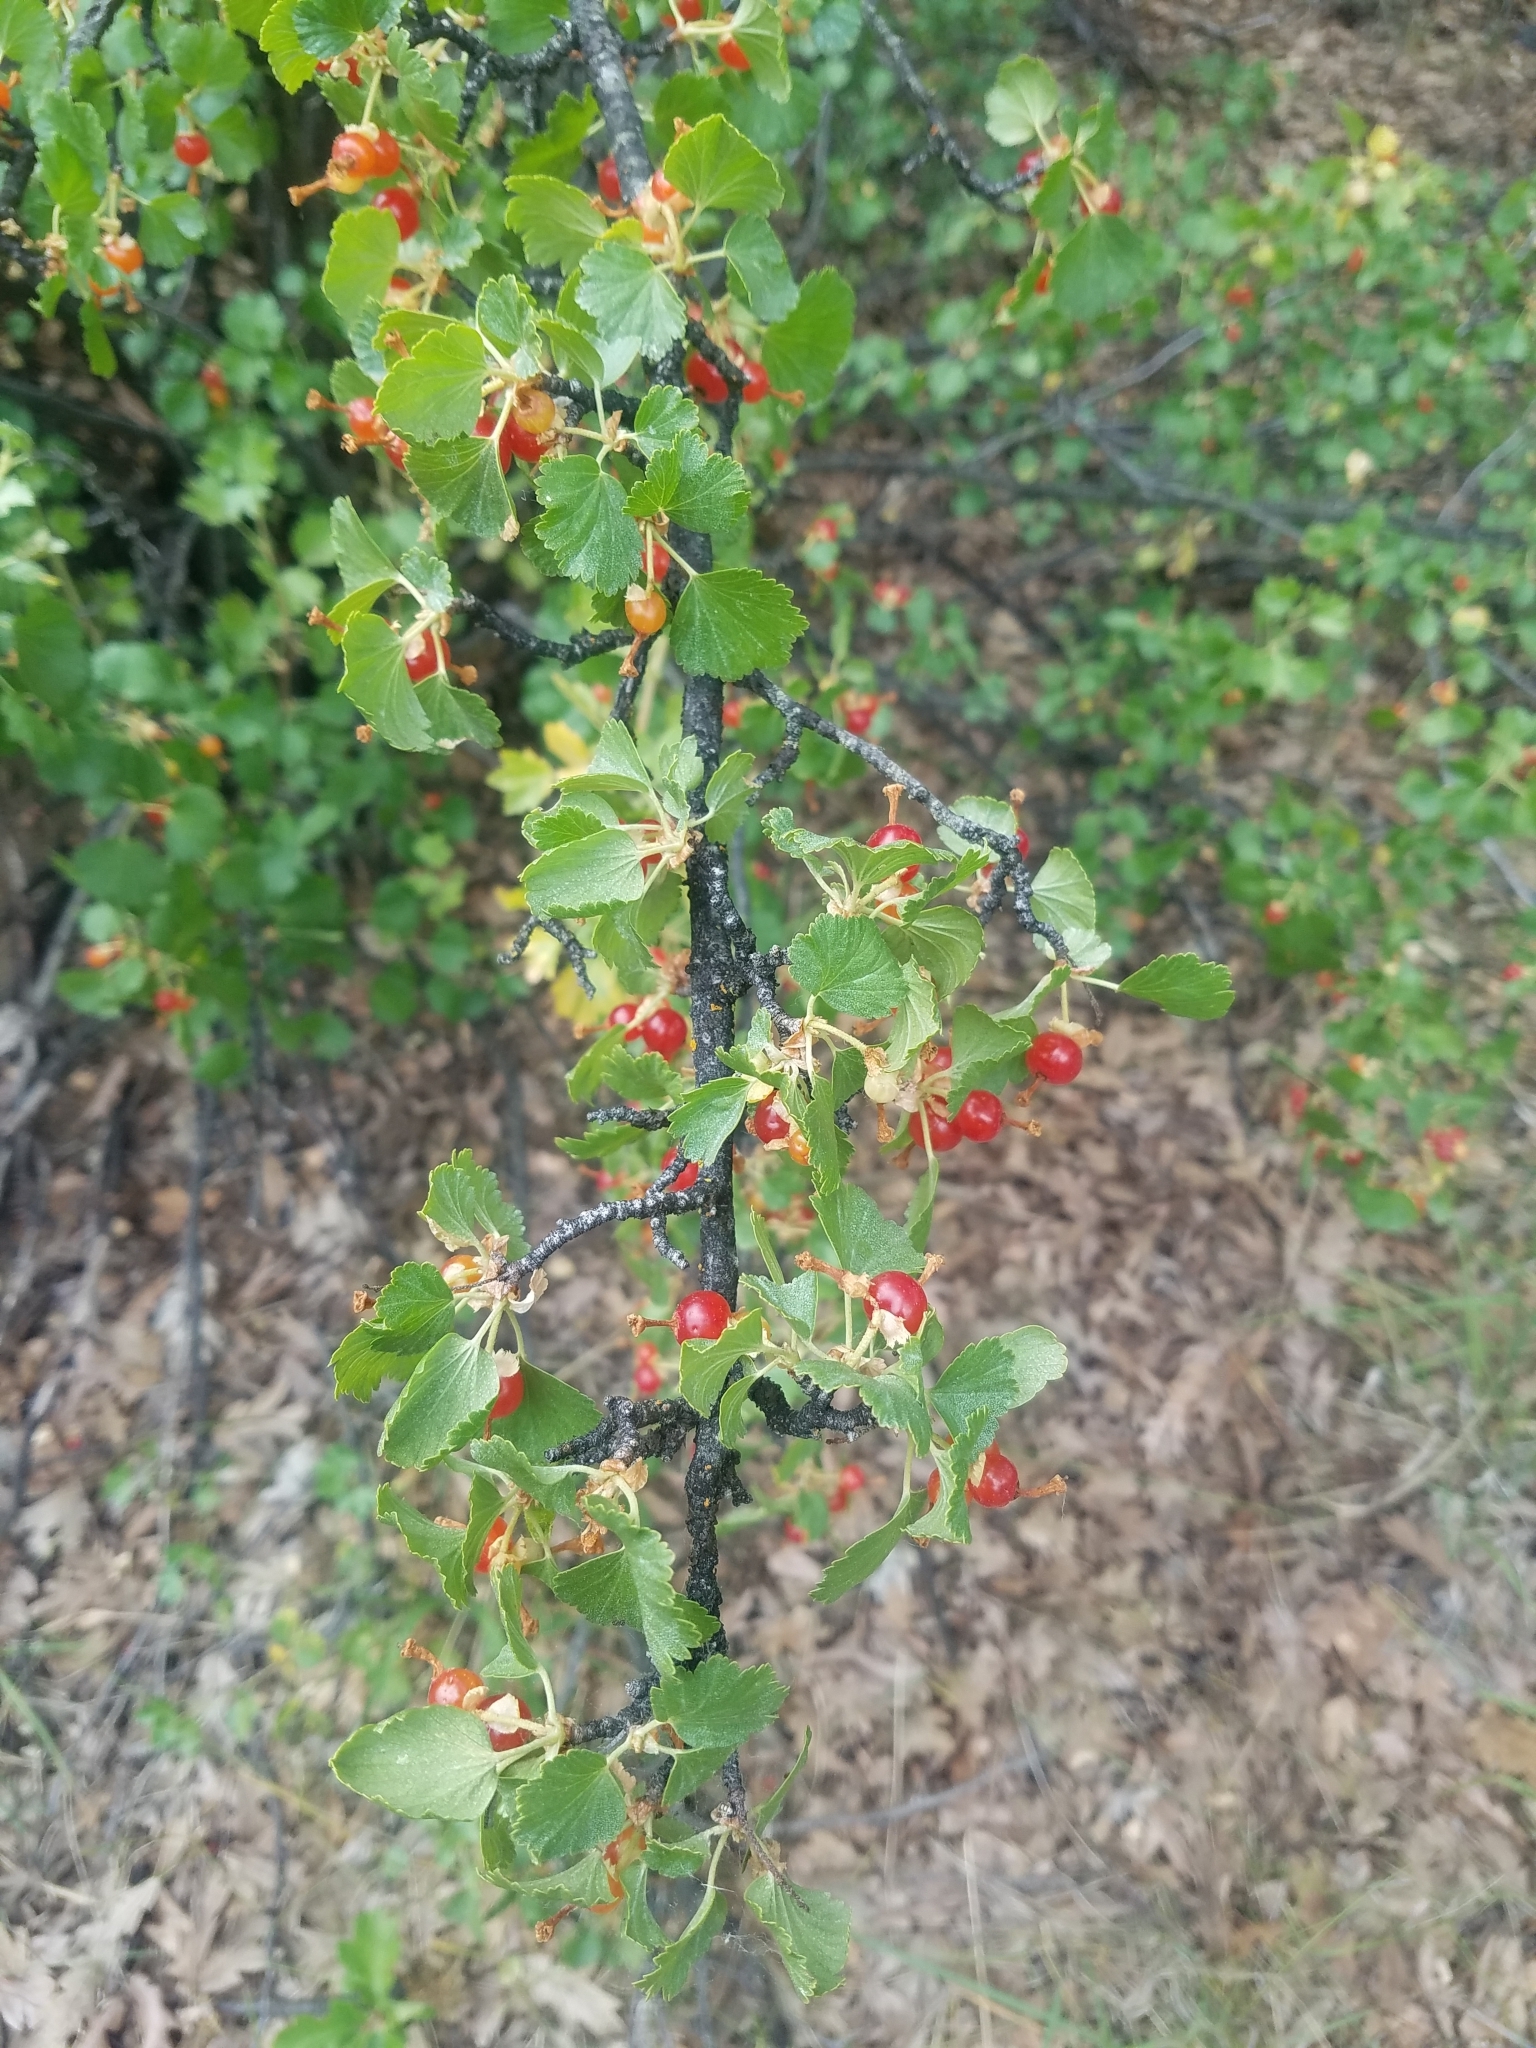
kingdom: Plantae
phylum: Tracheophyta
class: Magnoliopsida
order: Saxifragales
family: Grossulariaceae
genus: Ribes
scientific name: Ribes cereum
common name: Wax currant
